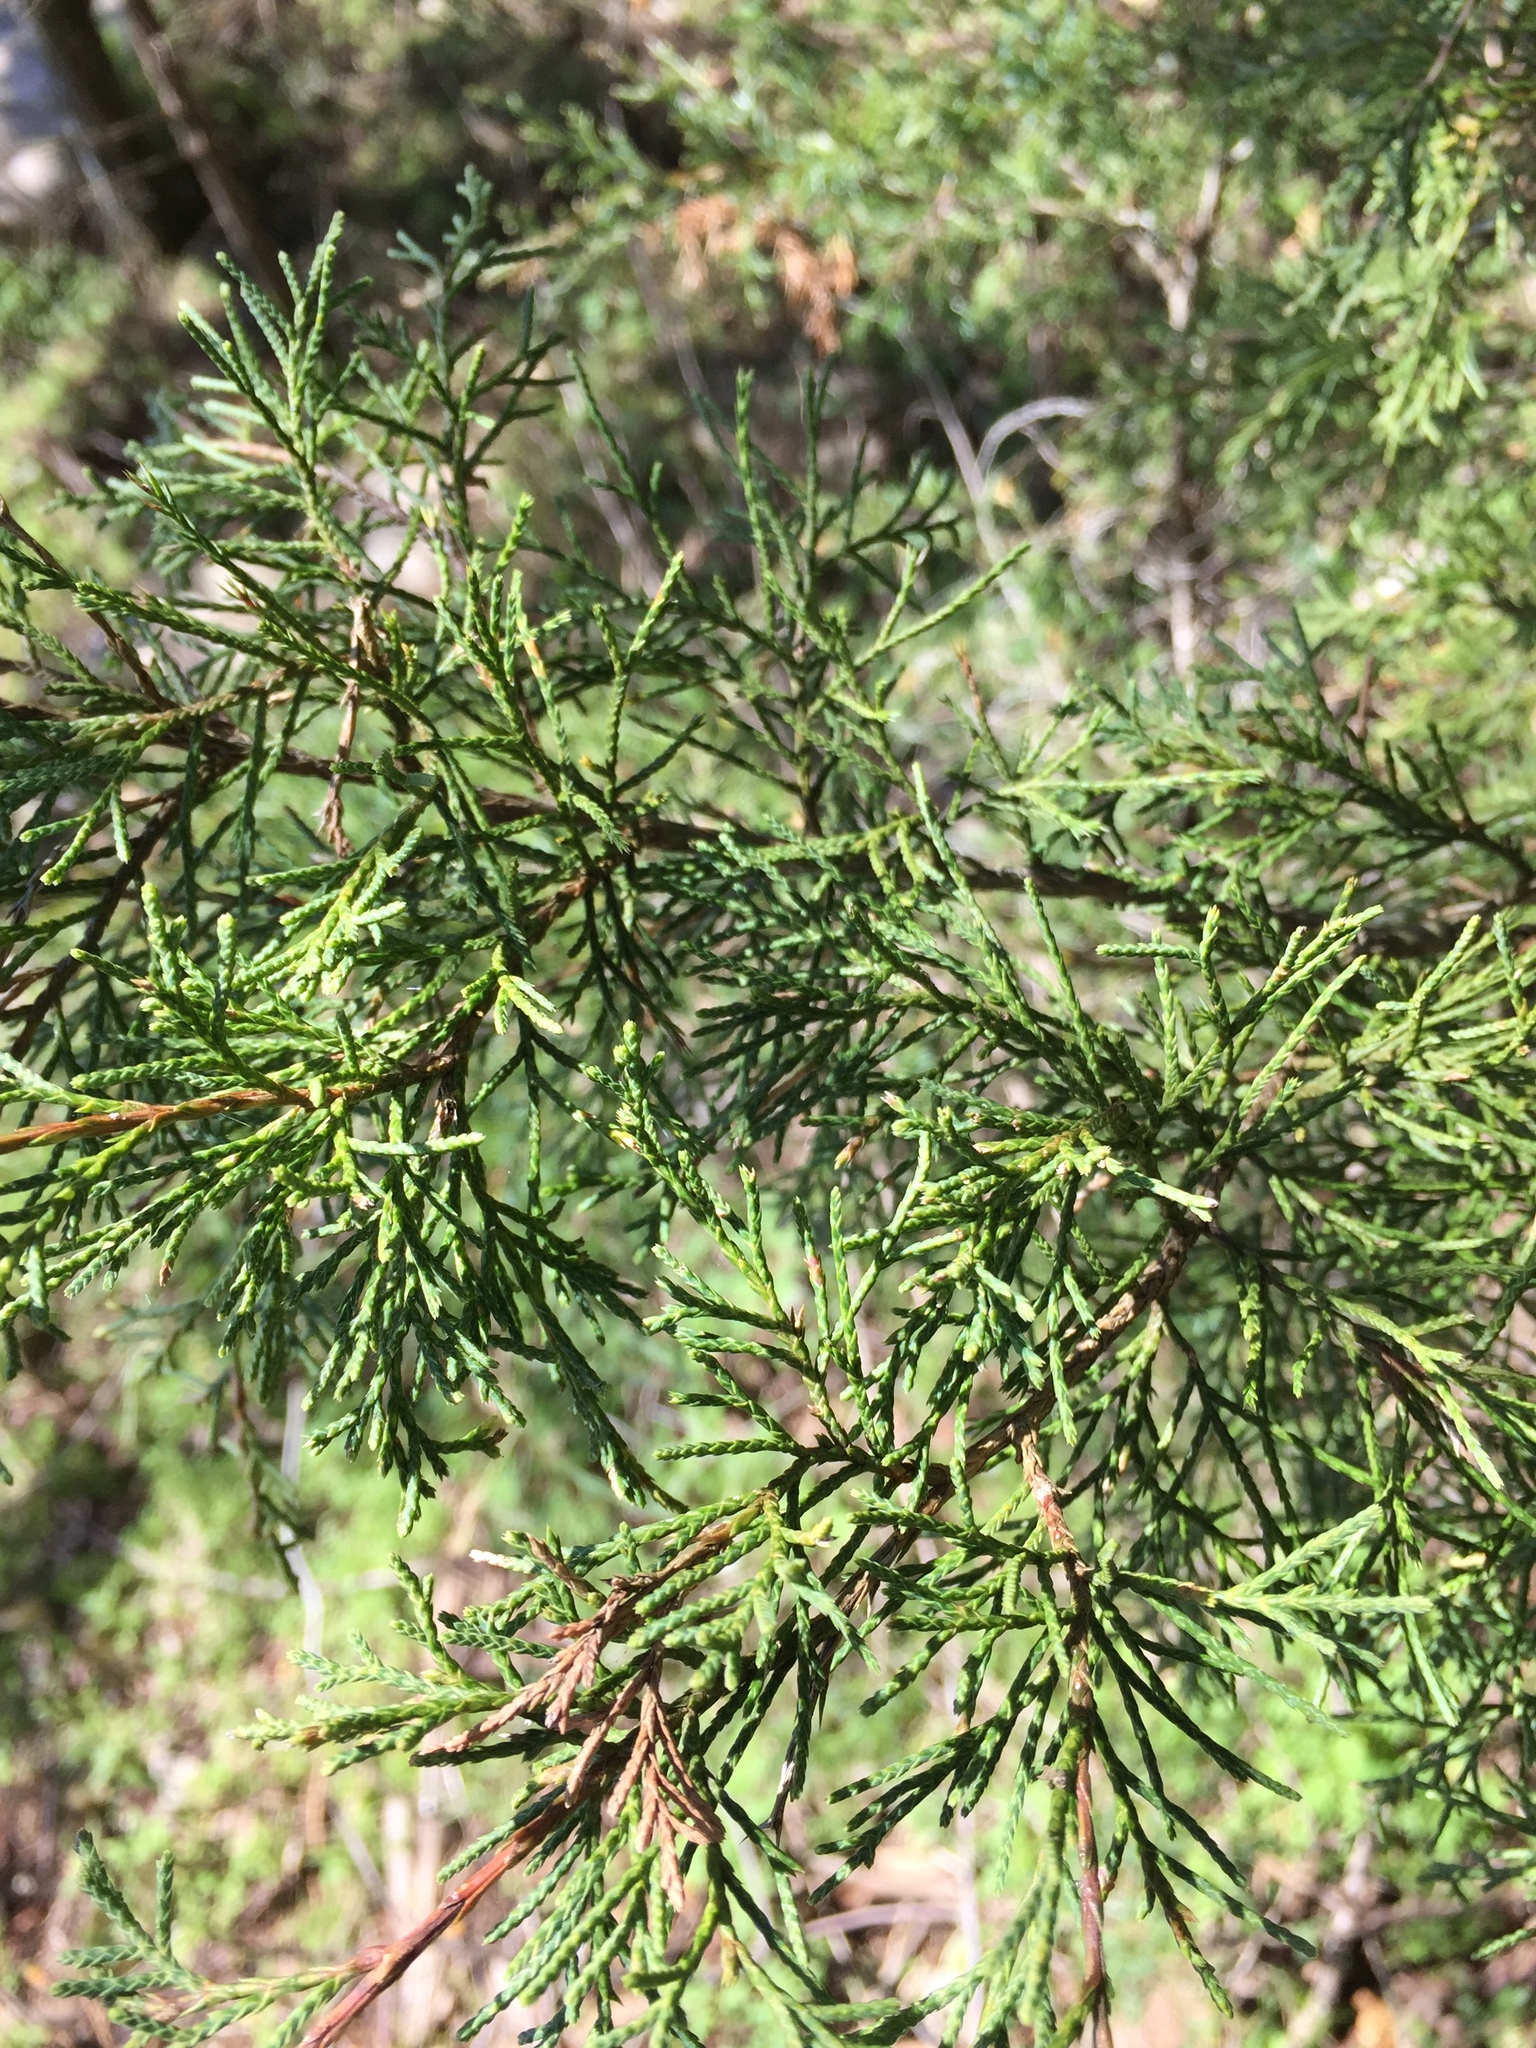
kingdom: Plantae
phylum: Tracheophyta
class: Pinopsida
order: Pinales
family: Cupressaceae
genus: Juniperus
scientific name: Juniperus virginiana
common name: Red juniper
